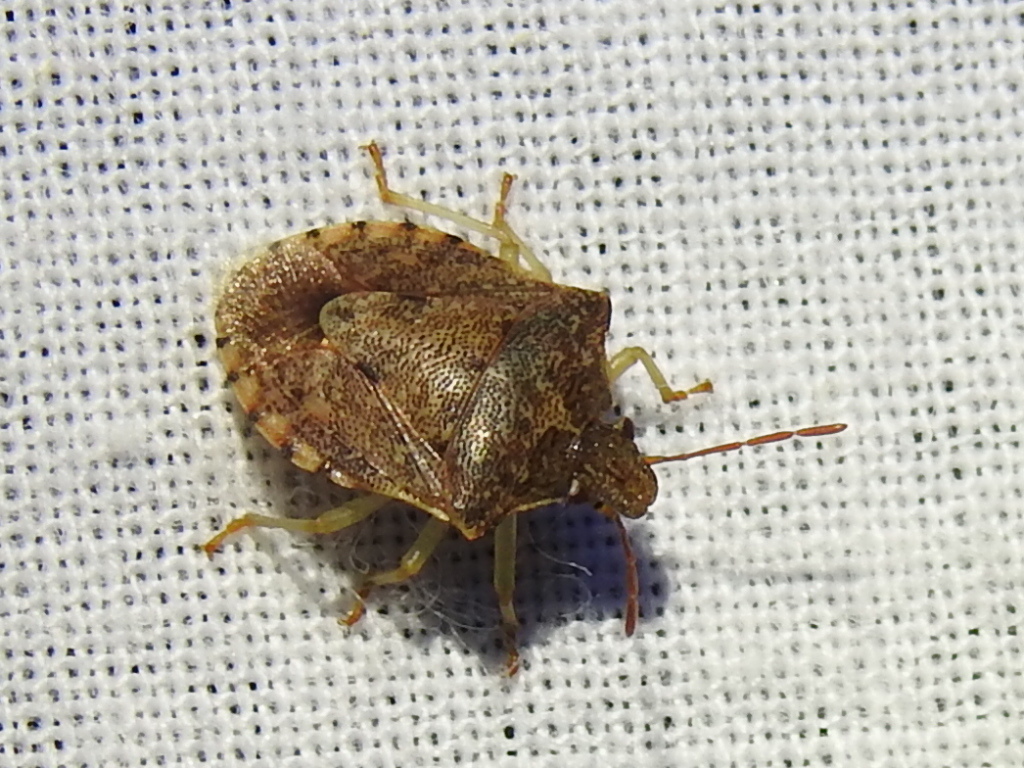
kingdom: Animalia
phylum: Arthropoda
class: Insecta
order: Hemiptera
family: Pentatomidae
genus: Dendrocoris
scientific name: Dendrocoris humeralis
